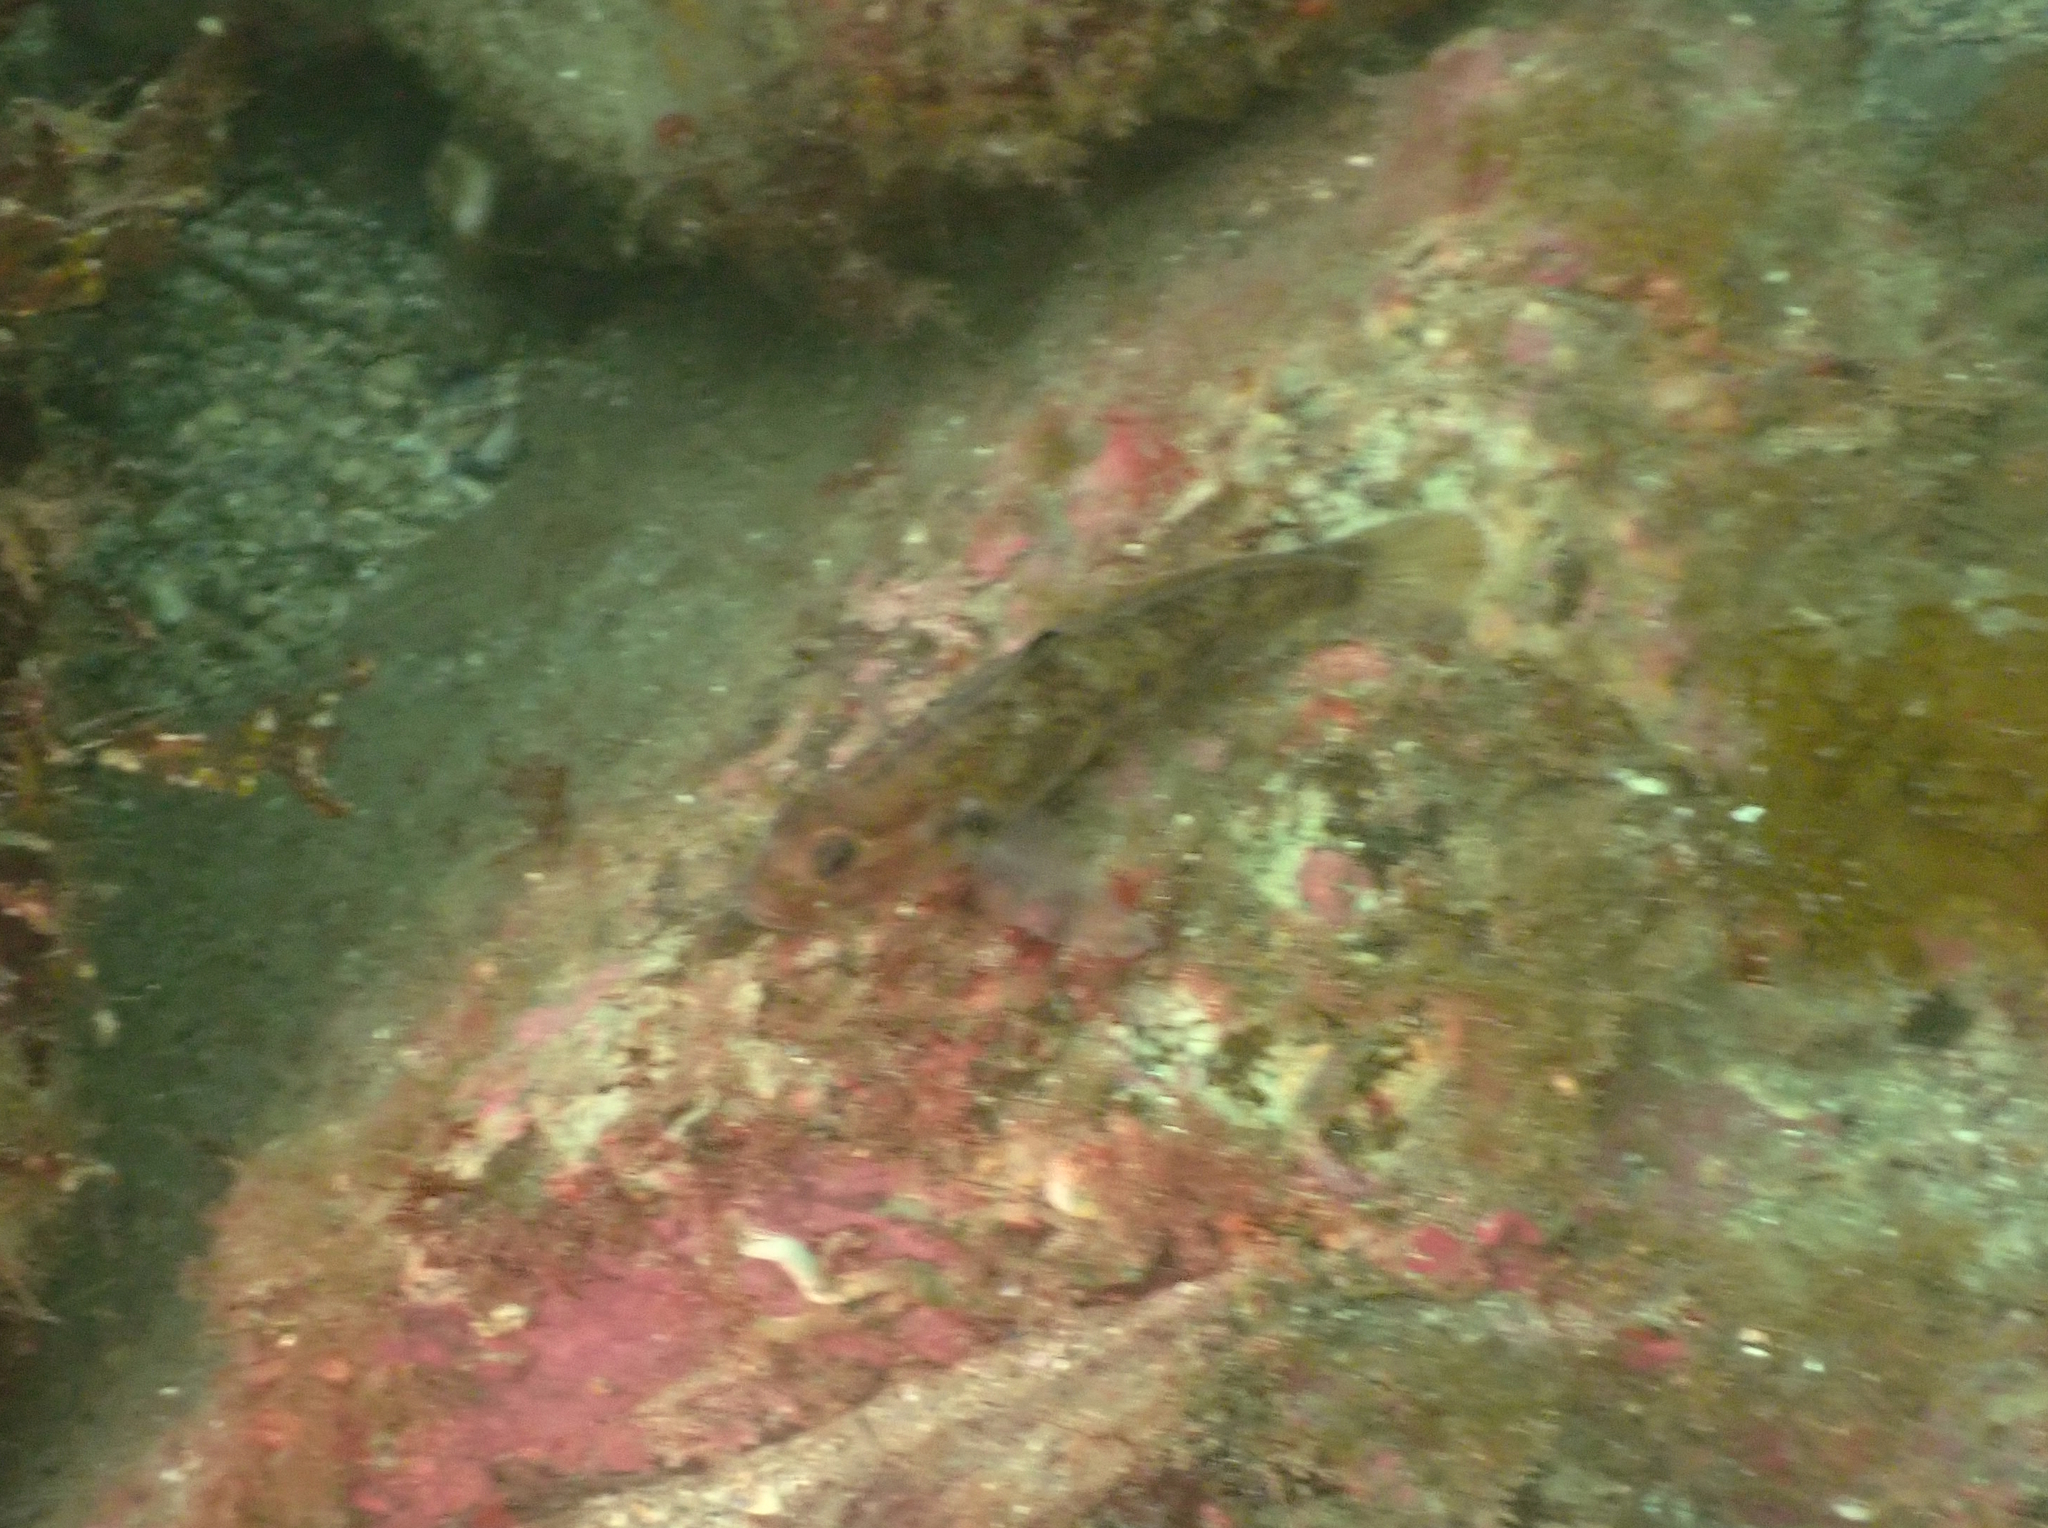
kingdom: Animalia
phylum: Chordata
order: Perciformes
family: Gobiidae
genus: Rhinogobiops
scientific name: Rhinogobiops nicholsii
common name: Blackeye goby
